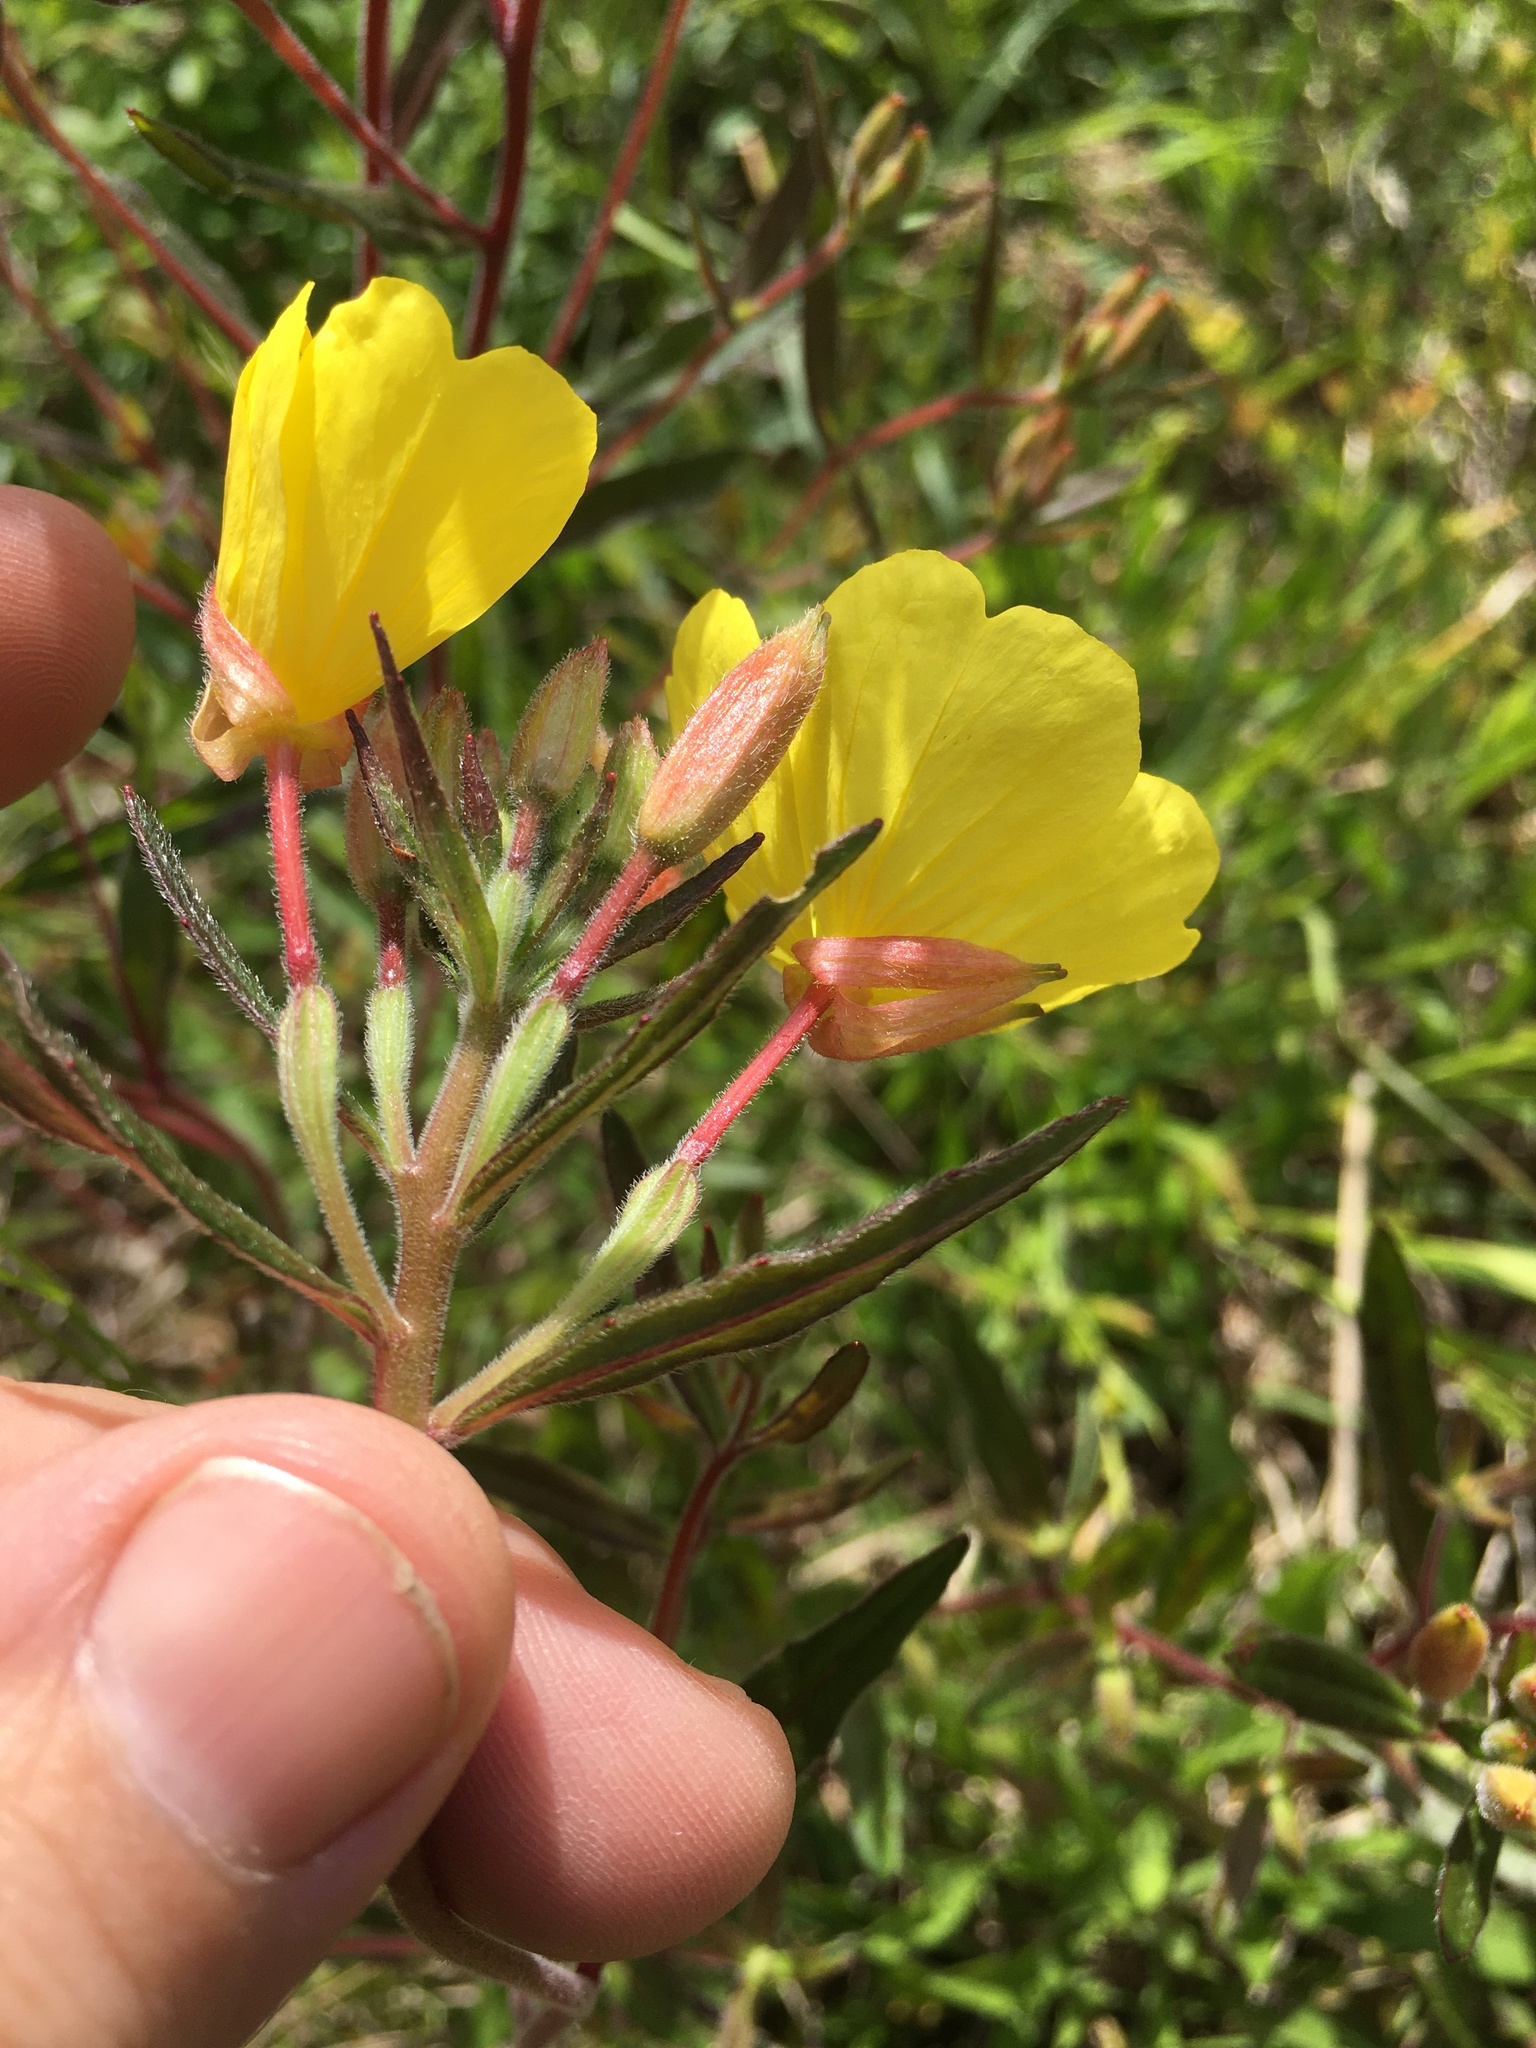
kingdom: Plantae
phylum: Tracheophyta
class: Magnoliopsida
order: Myrtales
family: Onagraceae
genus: Oenothera
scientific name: Oenothera fruticosa
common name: Southern sundrops
